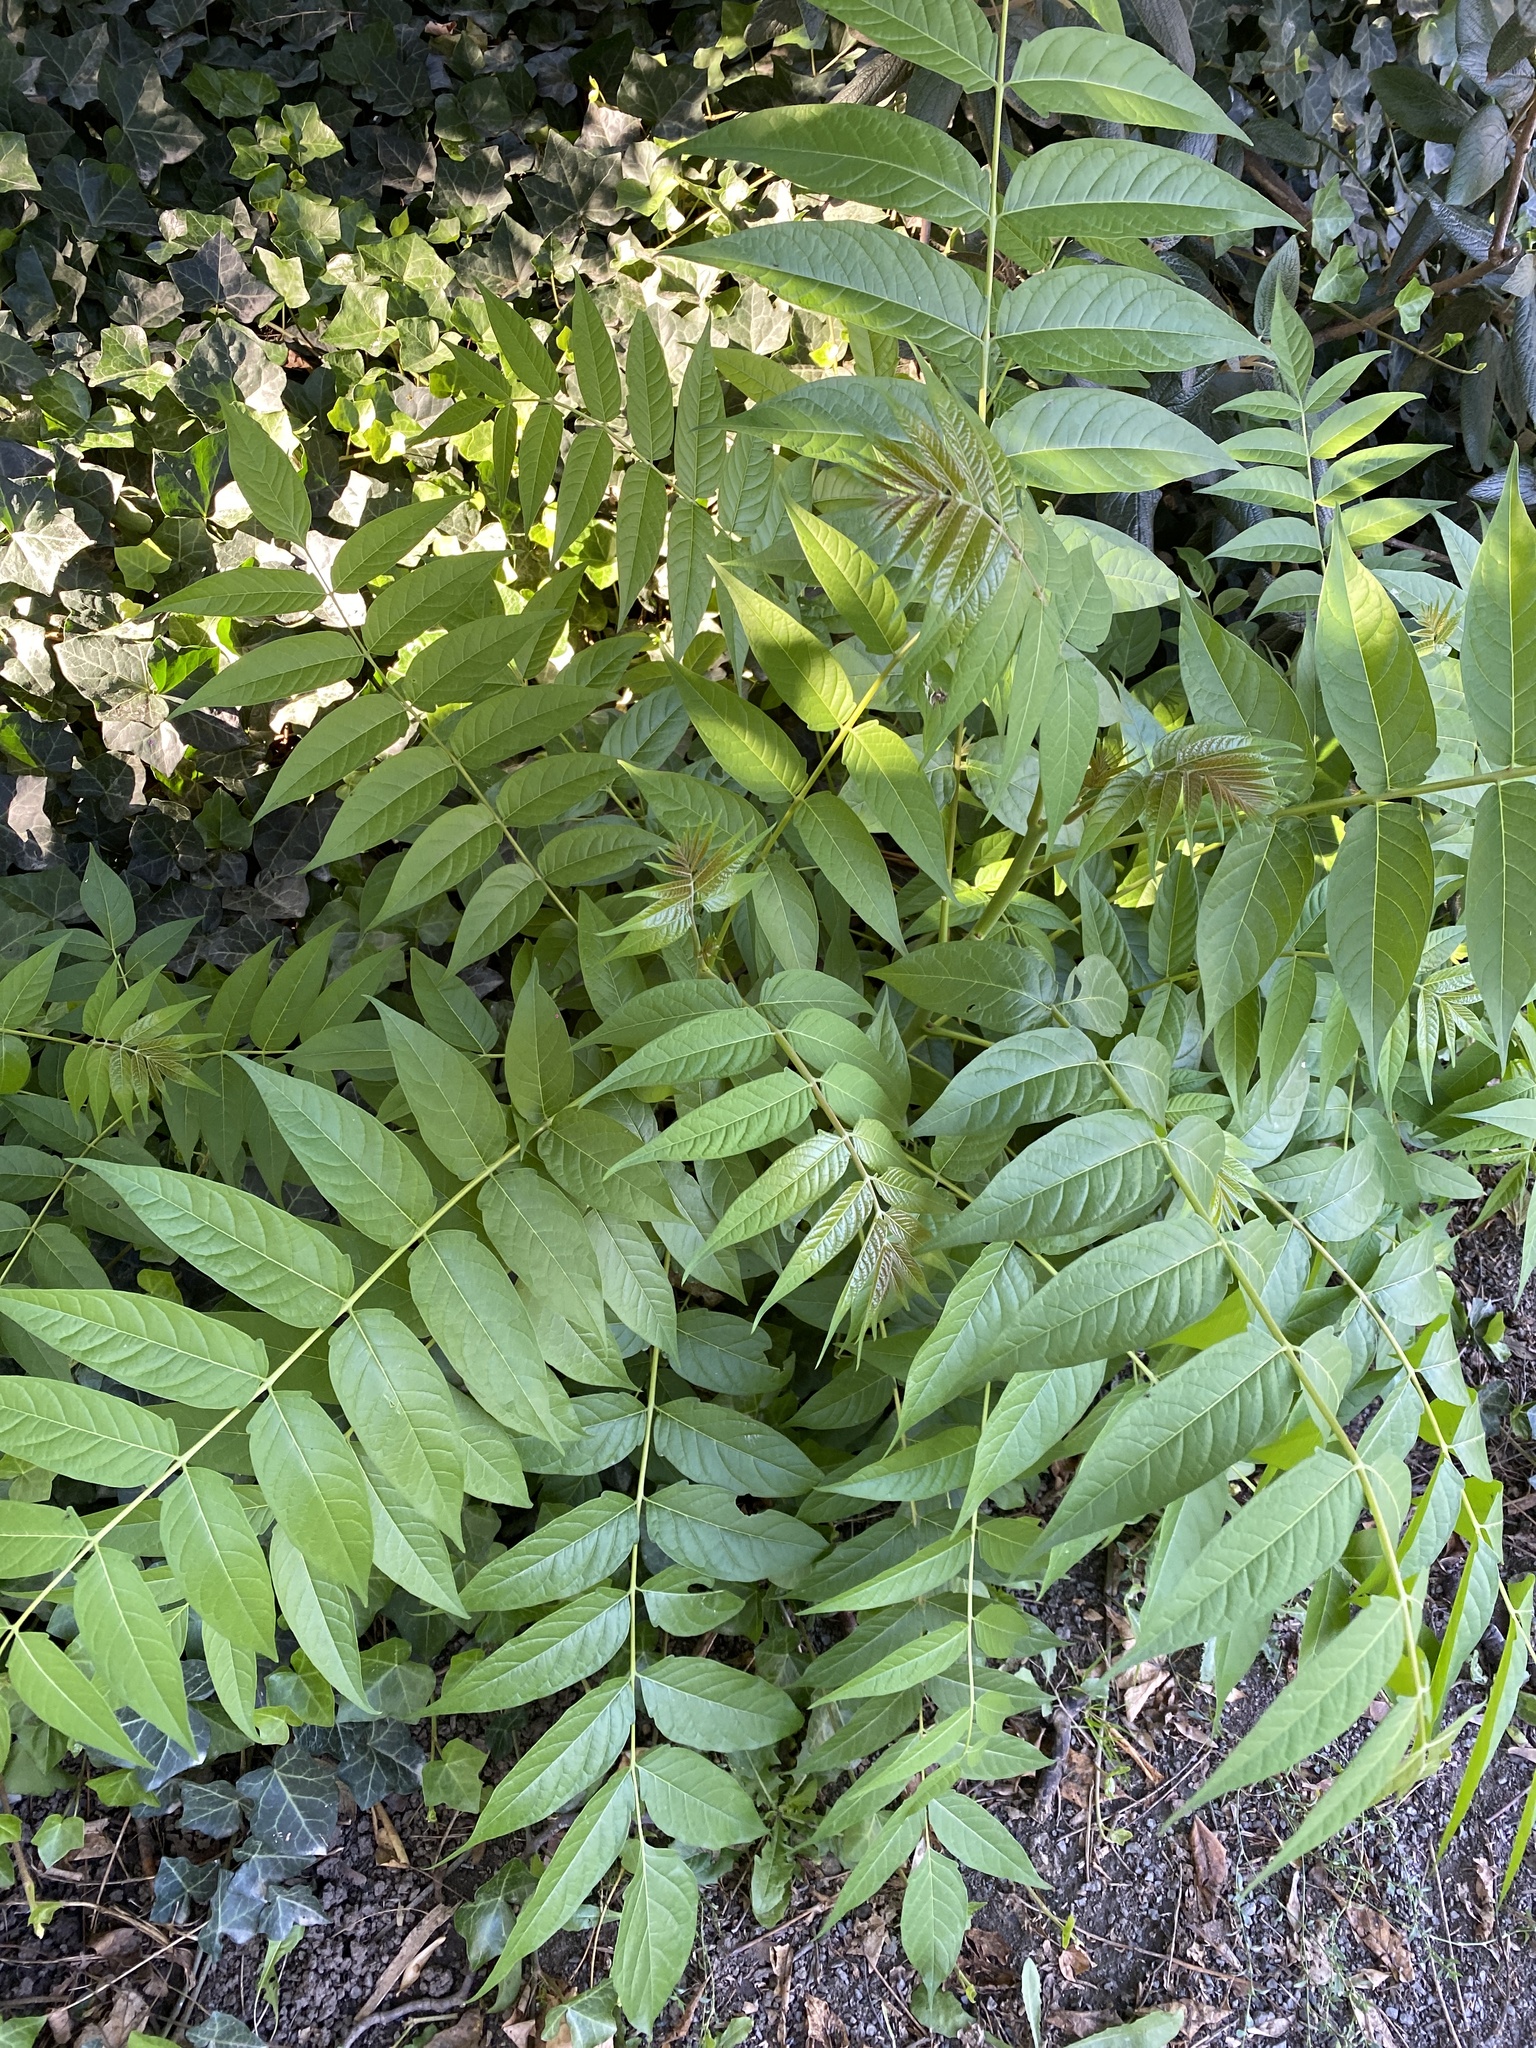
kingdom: Plantae
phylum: Tracheophyta
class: Magnoliopsida
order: Sapindales
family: Simaroubaceae
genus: Ailanthus
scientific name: Ailanthus altissima
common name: Tree-of-heaven
